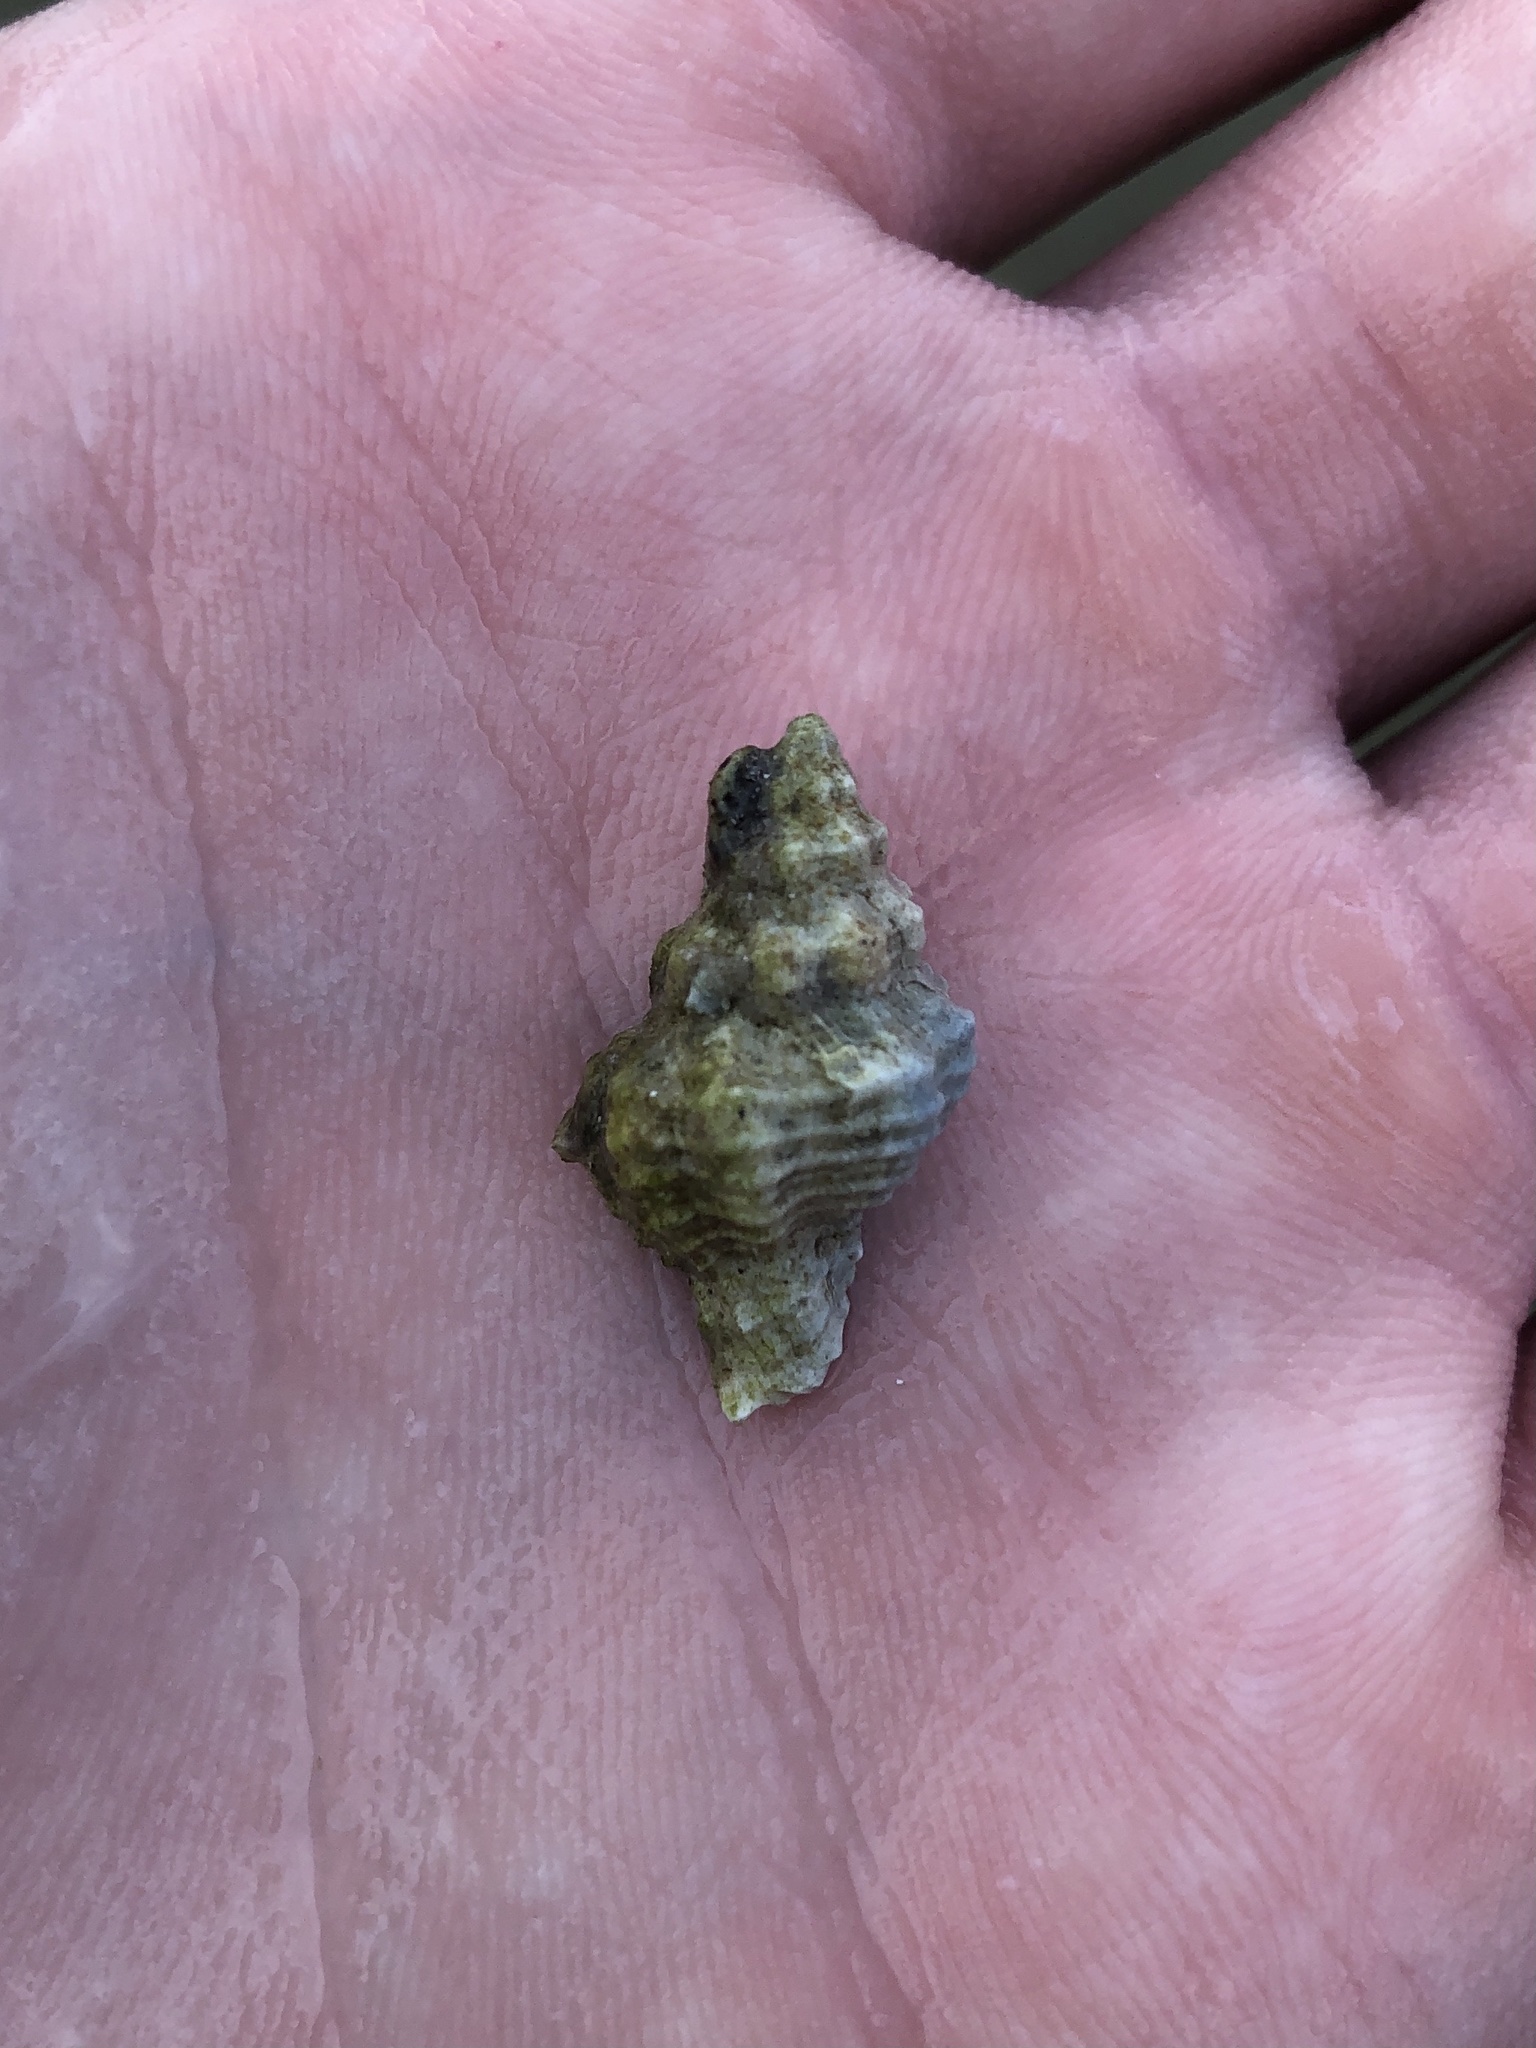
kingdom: Animalia
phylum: Mollusca
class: Gastropoda
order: Neogastropoda
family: Muricidae
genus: Calotrophon
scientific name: Calotrophon ostrearum
